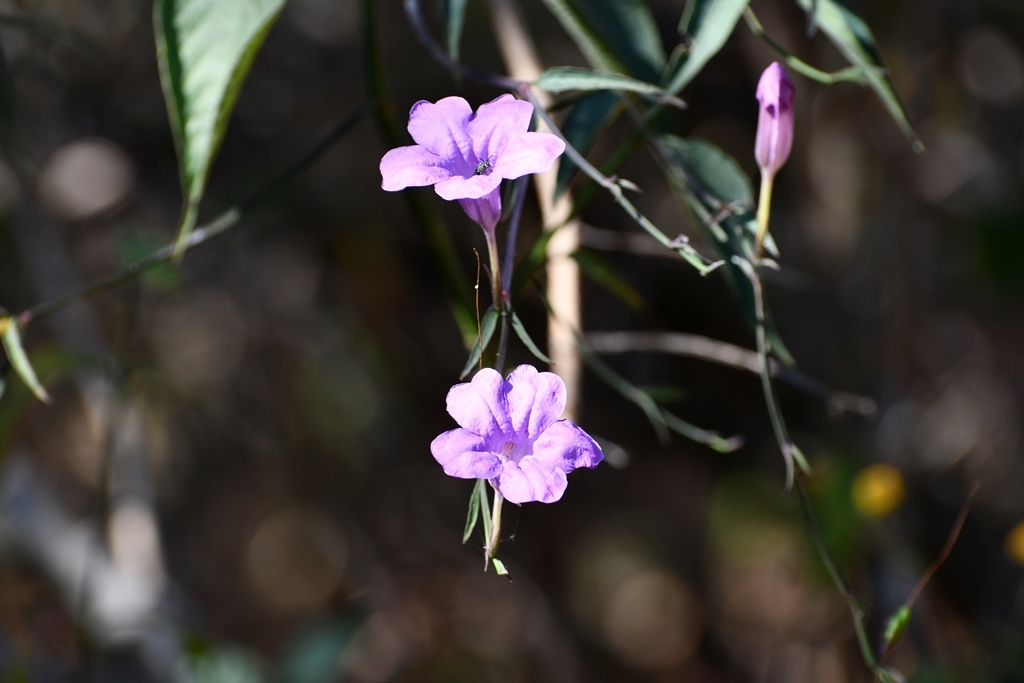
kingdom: Plantae
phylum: Tracheophyta
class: Magnoliopsida
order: Lamiales
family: Acanthaceae
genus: Ruellia
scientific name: Ruellia breedlovei
